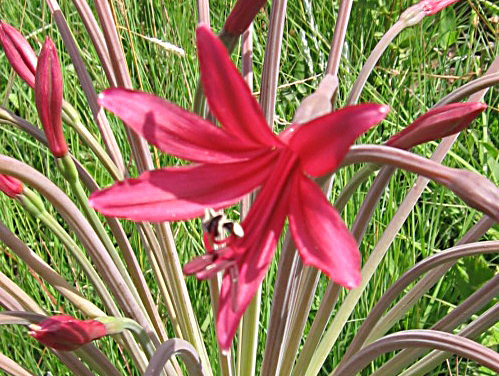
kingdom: Plantae
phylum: Tracheophyta
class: Liliopsida
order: Asparagales
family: Amaryllidaceae
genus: Brunsvigia
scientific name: Brunsvigia undulata
